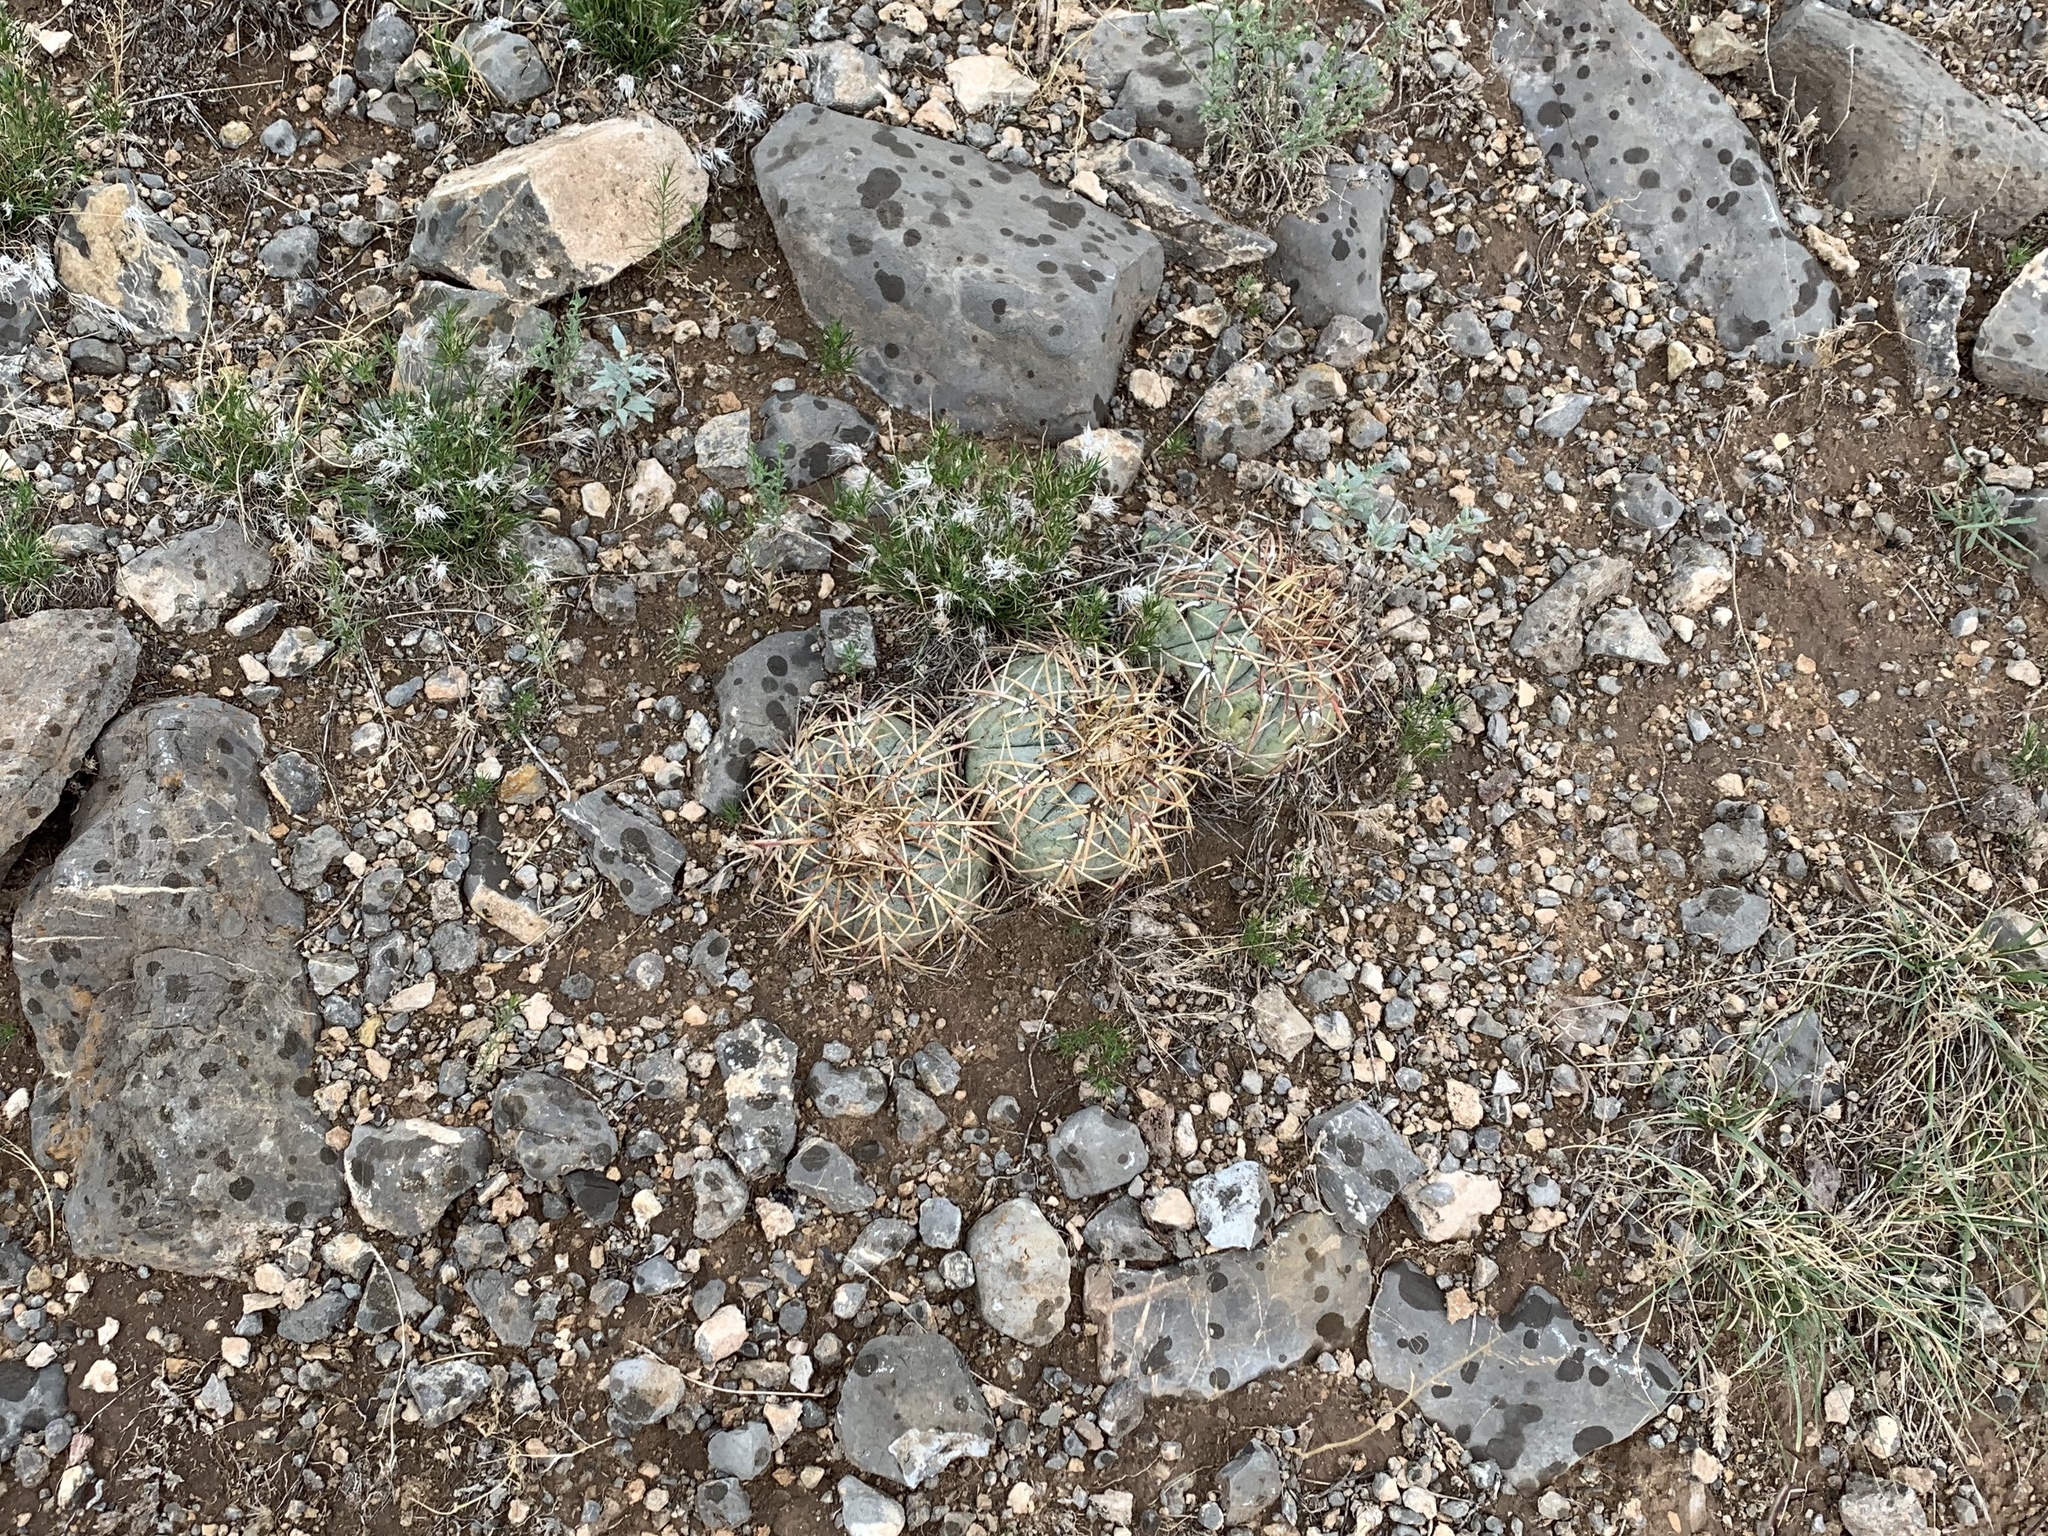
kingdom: Plantae
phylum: Tracheophyta
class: Magnoliopsida
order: Caryophyllales
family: Cactaceae
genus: Echinocactus
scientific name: Echinocactus horizonthalonius
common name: Devilshead
